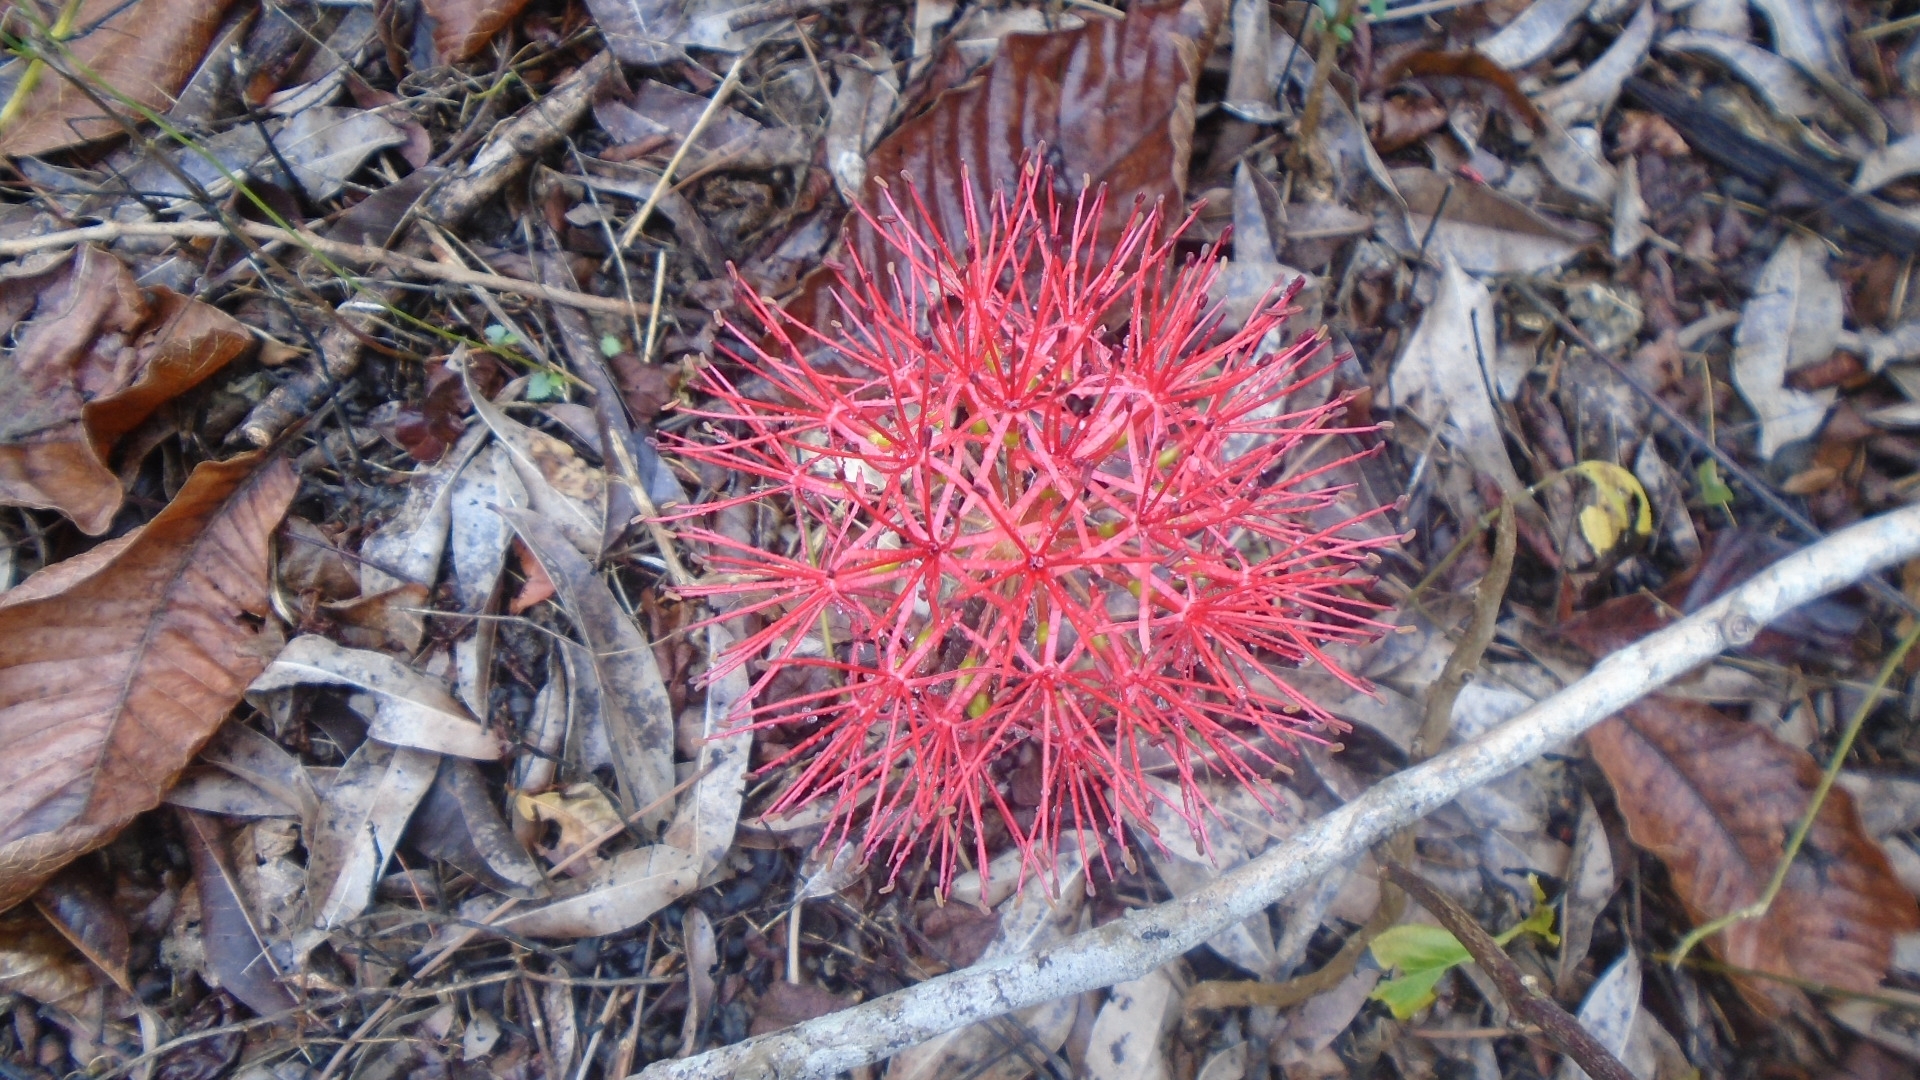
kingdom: Plantae
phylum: Tracheophyta
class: Liliopsida
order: Asparagales
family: Amaryllidaceae
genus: Scadoxus
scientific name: Scadoxus multiflorus
